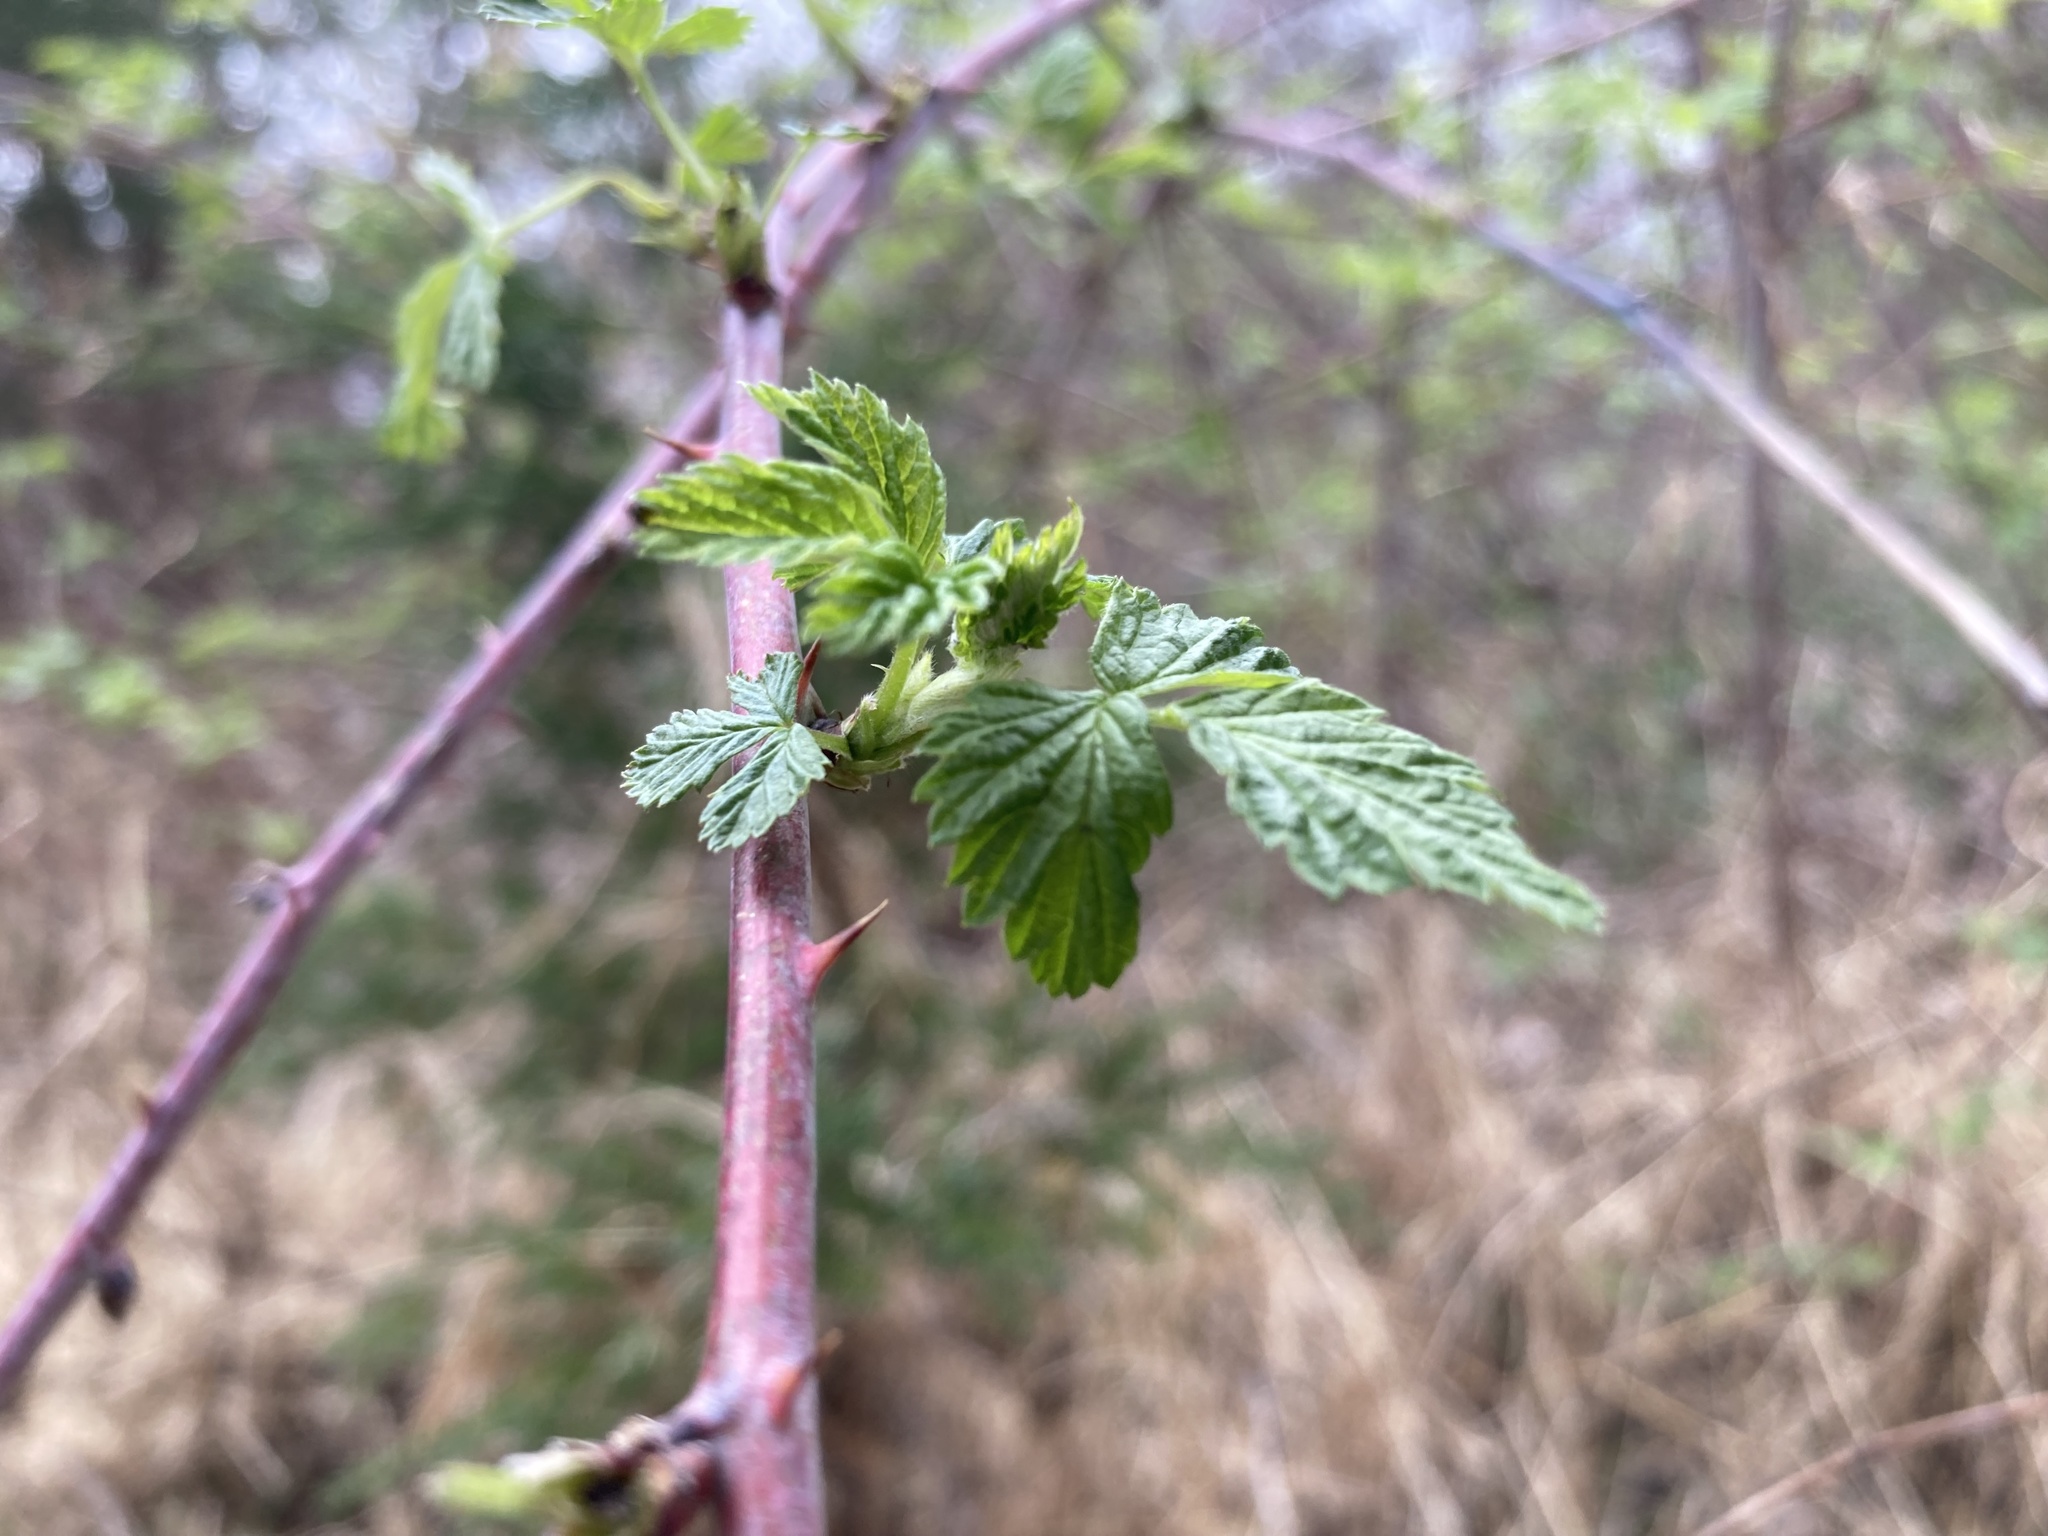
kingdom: Plantae
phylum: Tracheophyta
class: Magnoliopsida
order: Rosales
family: Rosaceae
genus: Rubus
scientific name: Rubus occidentalis
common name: Black raspberry
